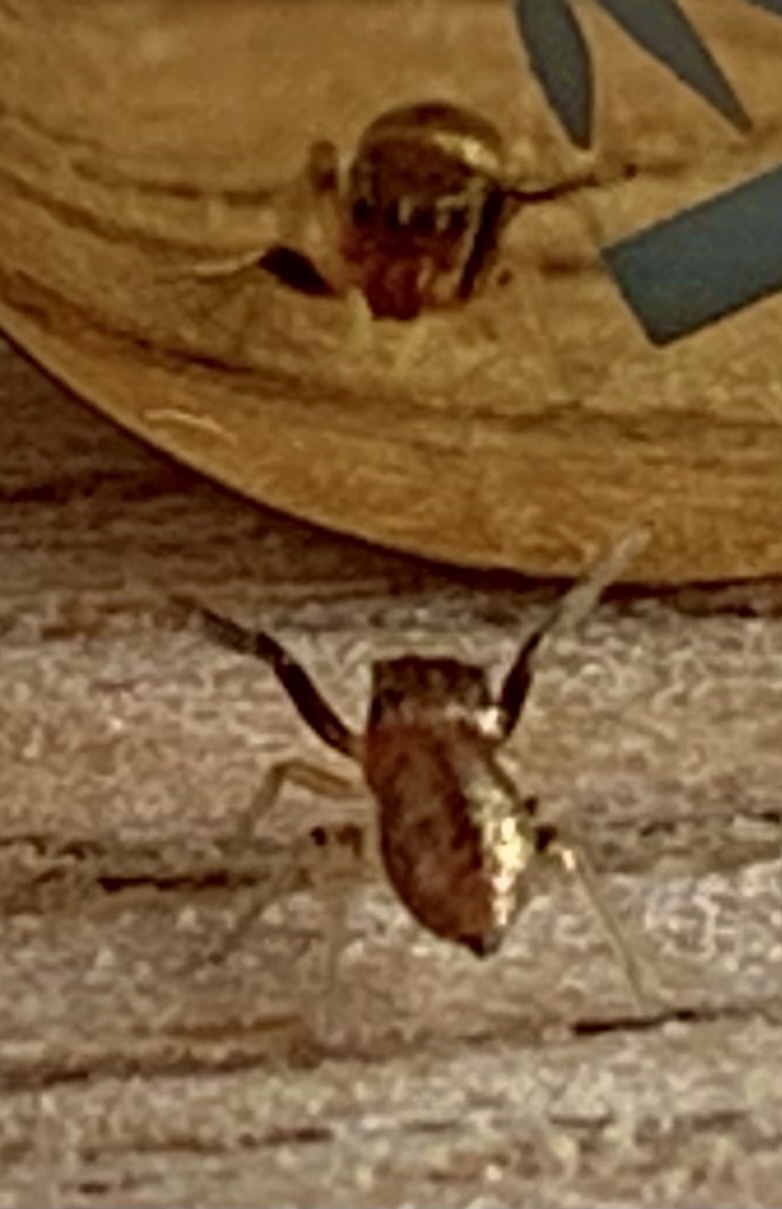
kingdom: Animalia
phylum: Arthropoda
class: Arachnida
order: Araneae
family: Salticidae
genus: Zygoballus
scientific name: Zygoballus sexpunctatus
